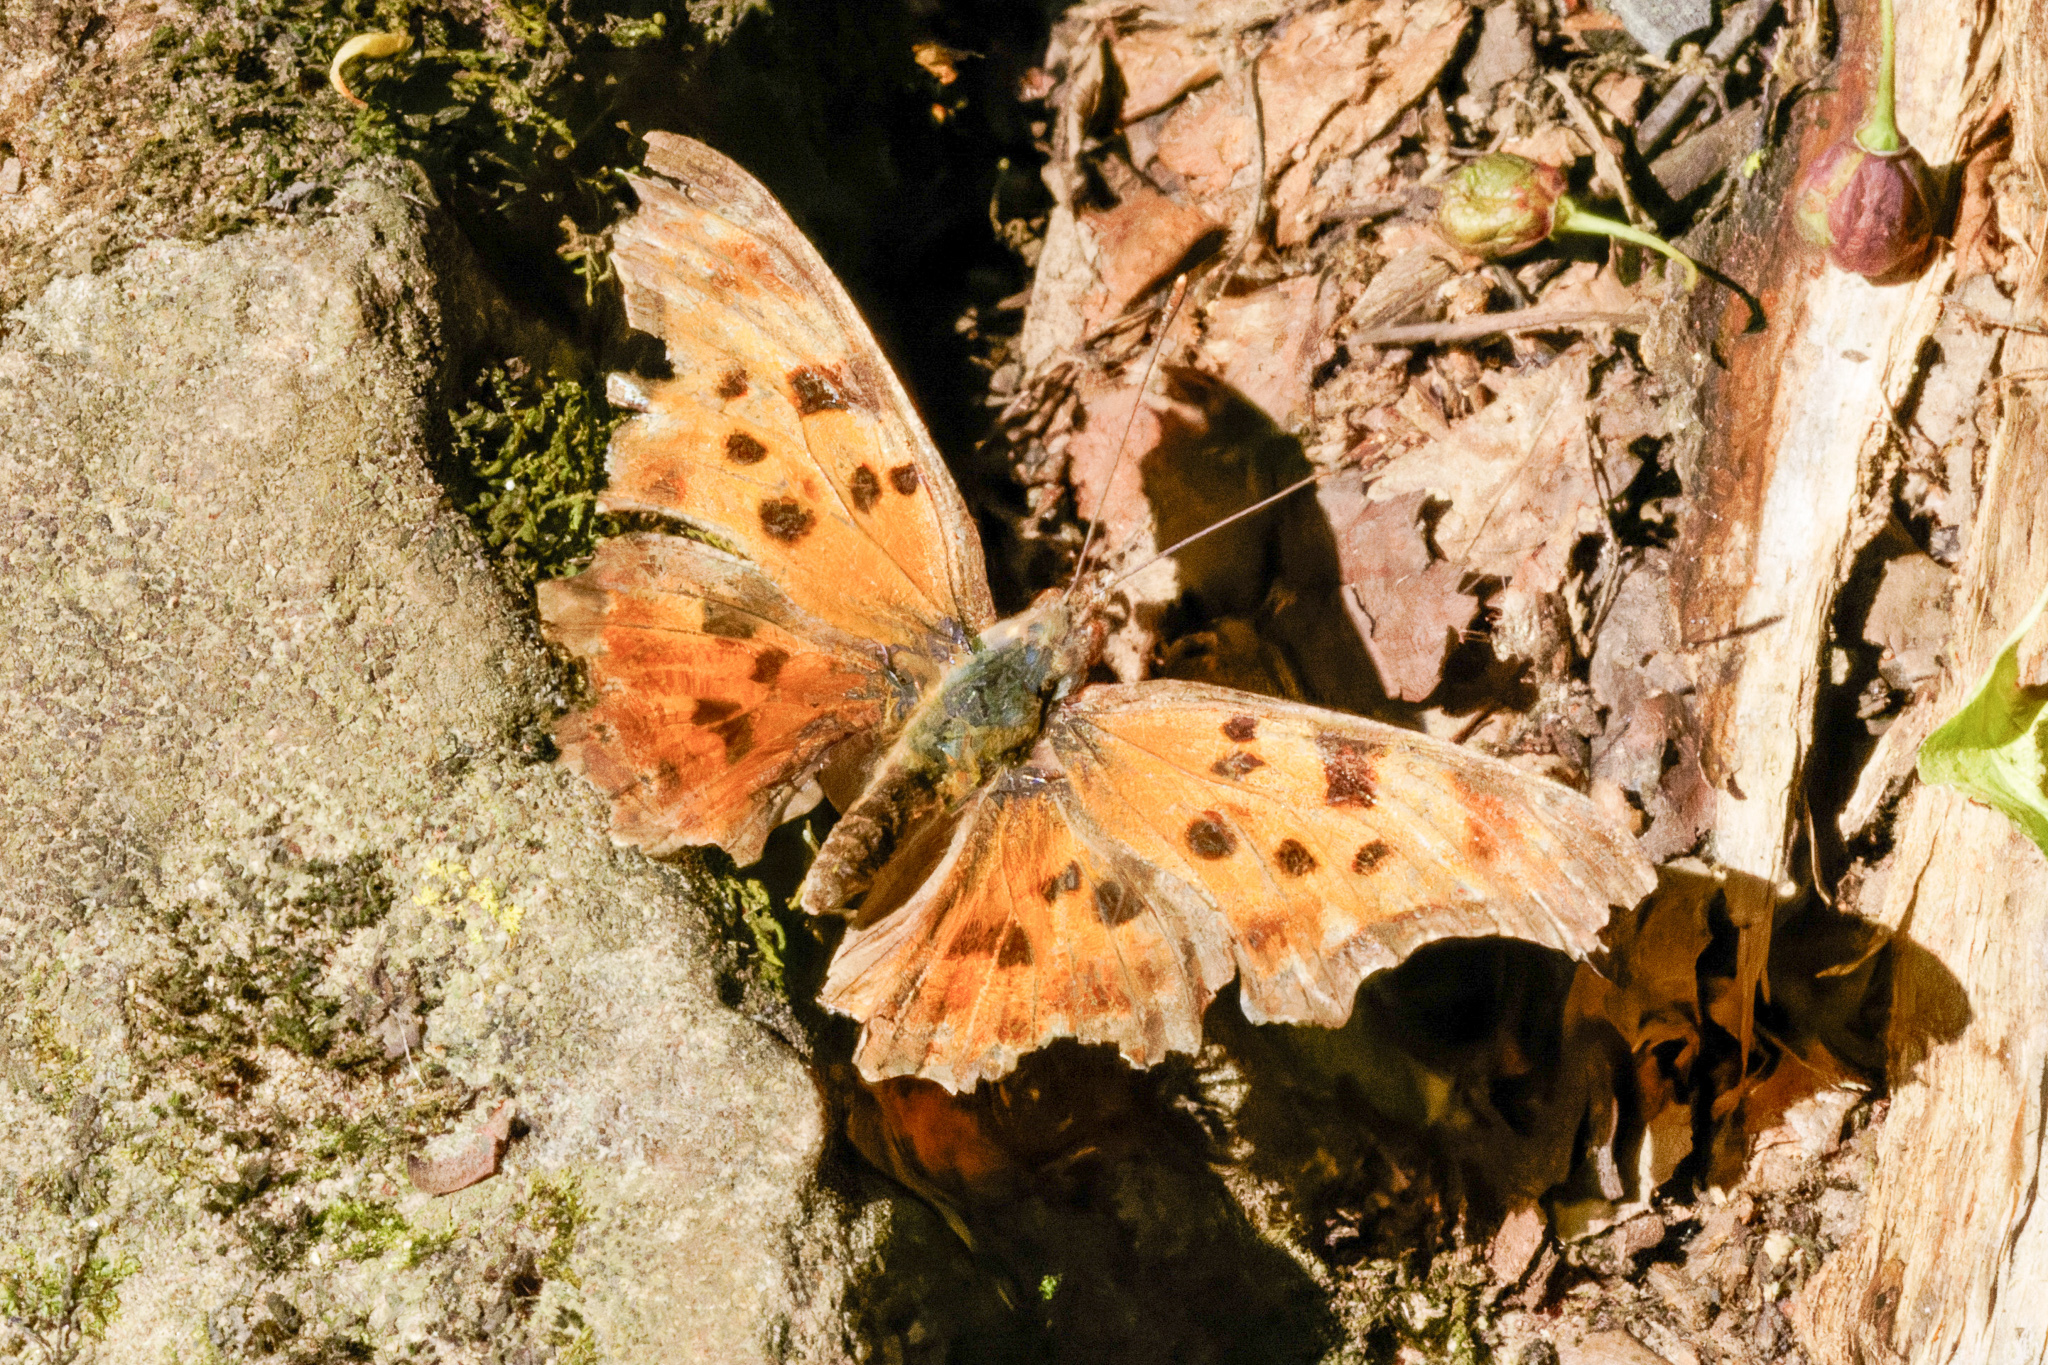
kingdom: Animalia
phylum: Arthropoda
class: Insecta
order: Lepidoptera
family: Nymphalidae
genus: Polygonia
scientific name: Polygonia comma
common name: Eastern comma
